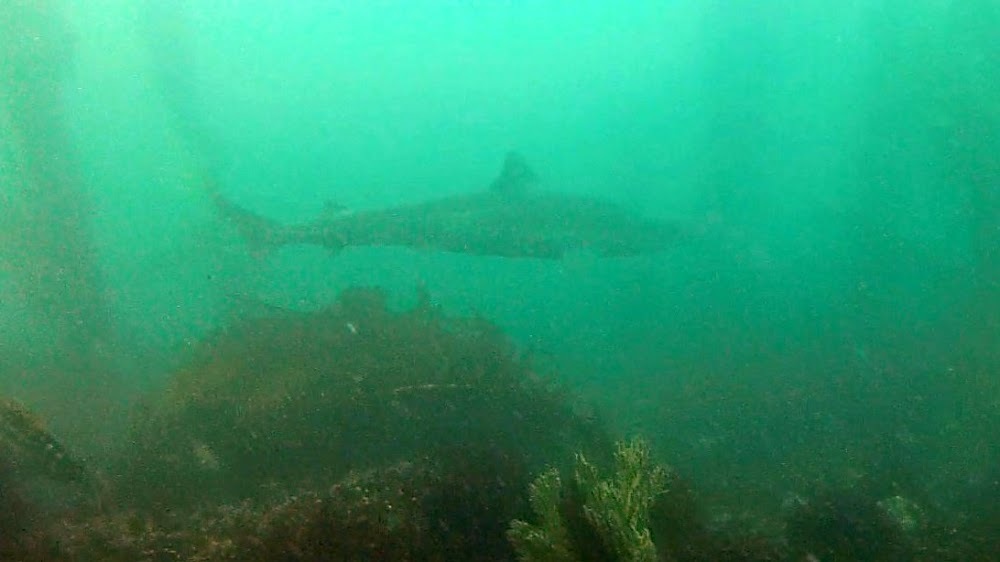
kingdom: Animalia
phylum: Chordata
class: Elasmobranchii
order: Carcharhiniformes
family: Triakidae
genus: Galeorhinus
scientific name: Galeorhinus galeus
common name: Tope
